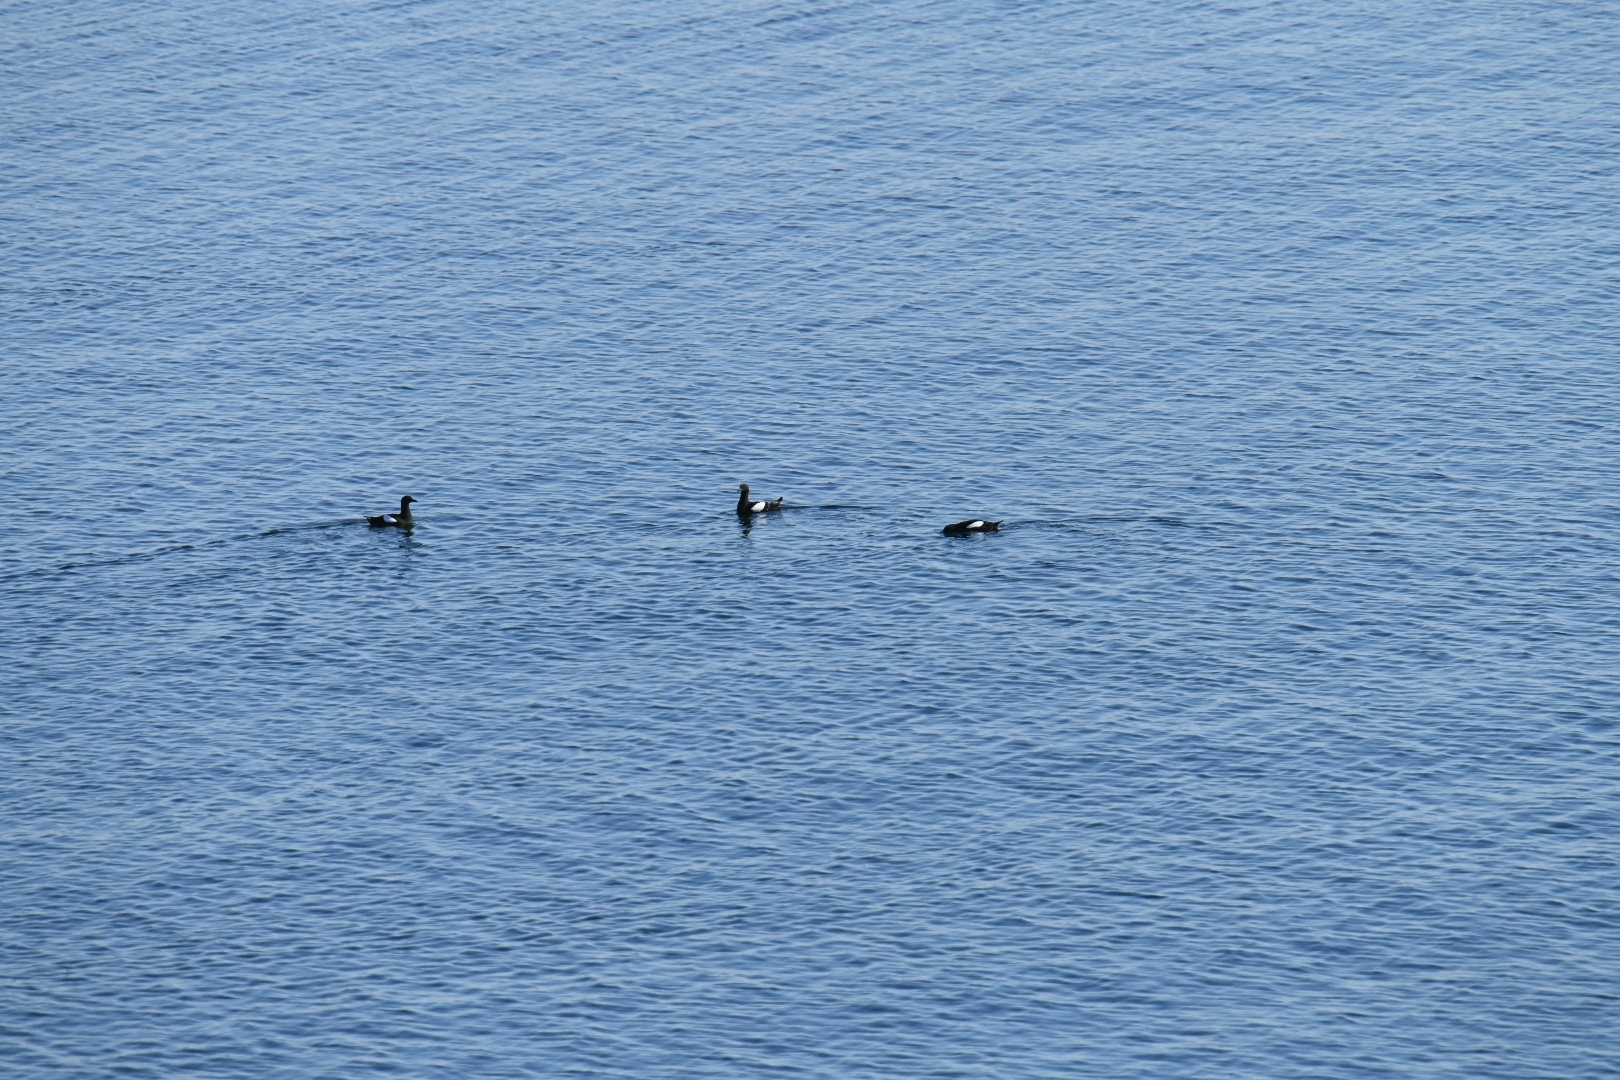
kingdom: Animalia
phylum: Chordata
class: Aves
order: Charadriiformes
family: Alcidae
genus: Cepphus
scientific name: Cepphus grylle
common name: Black guillemot
